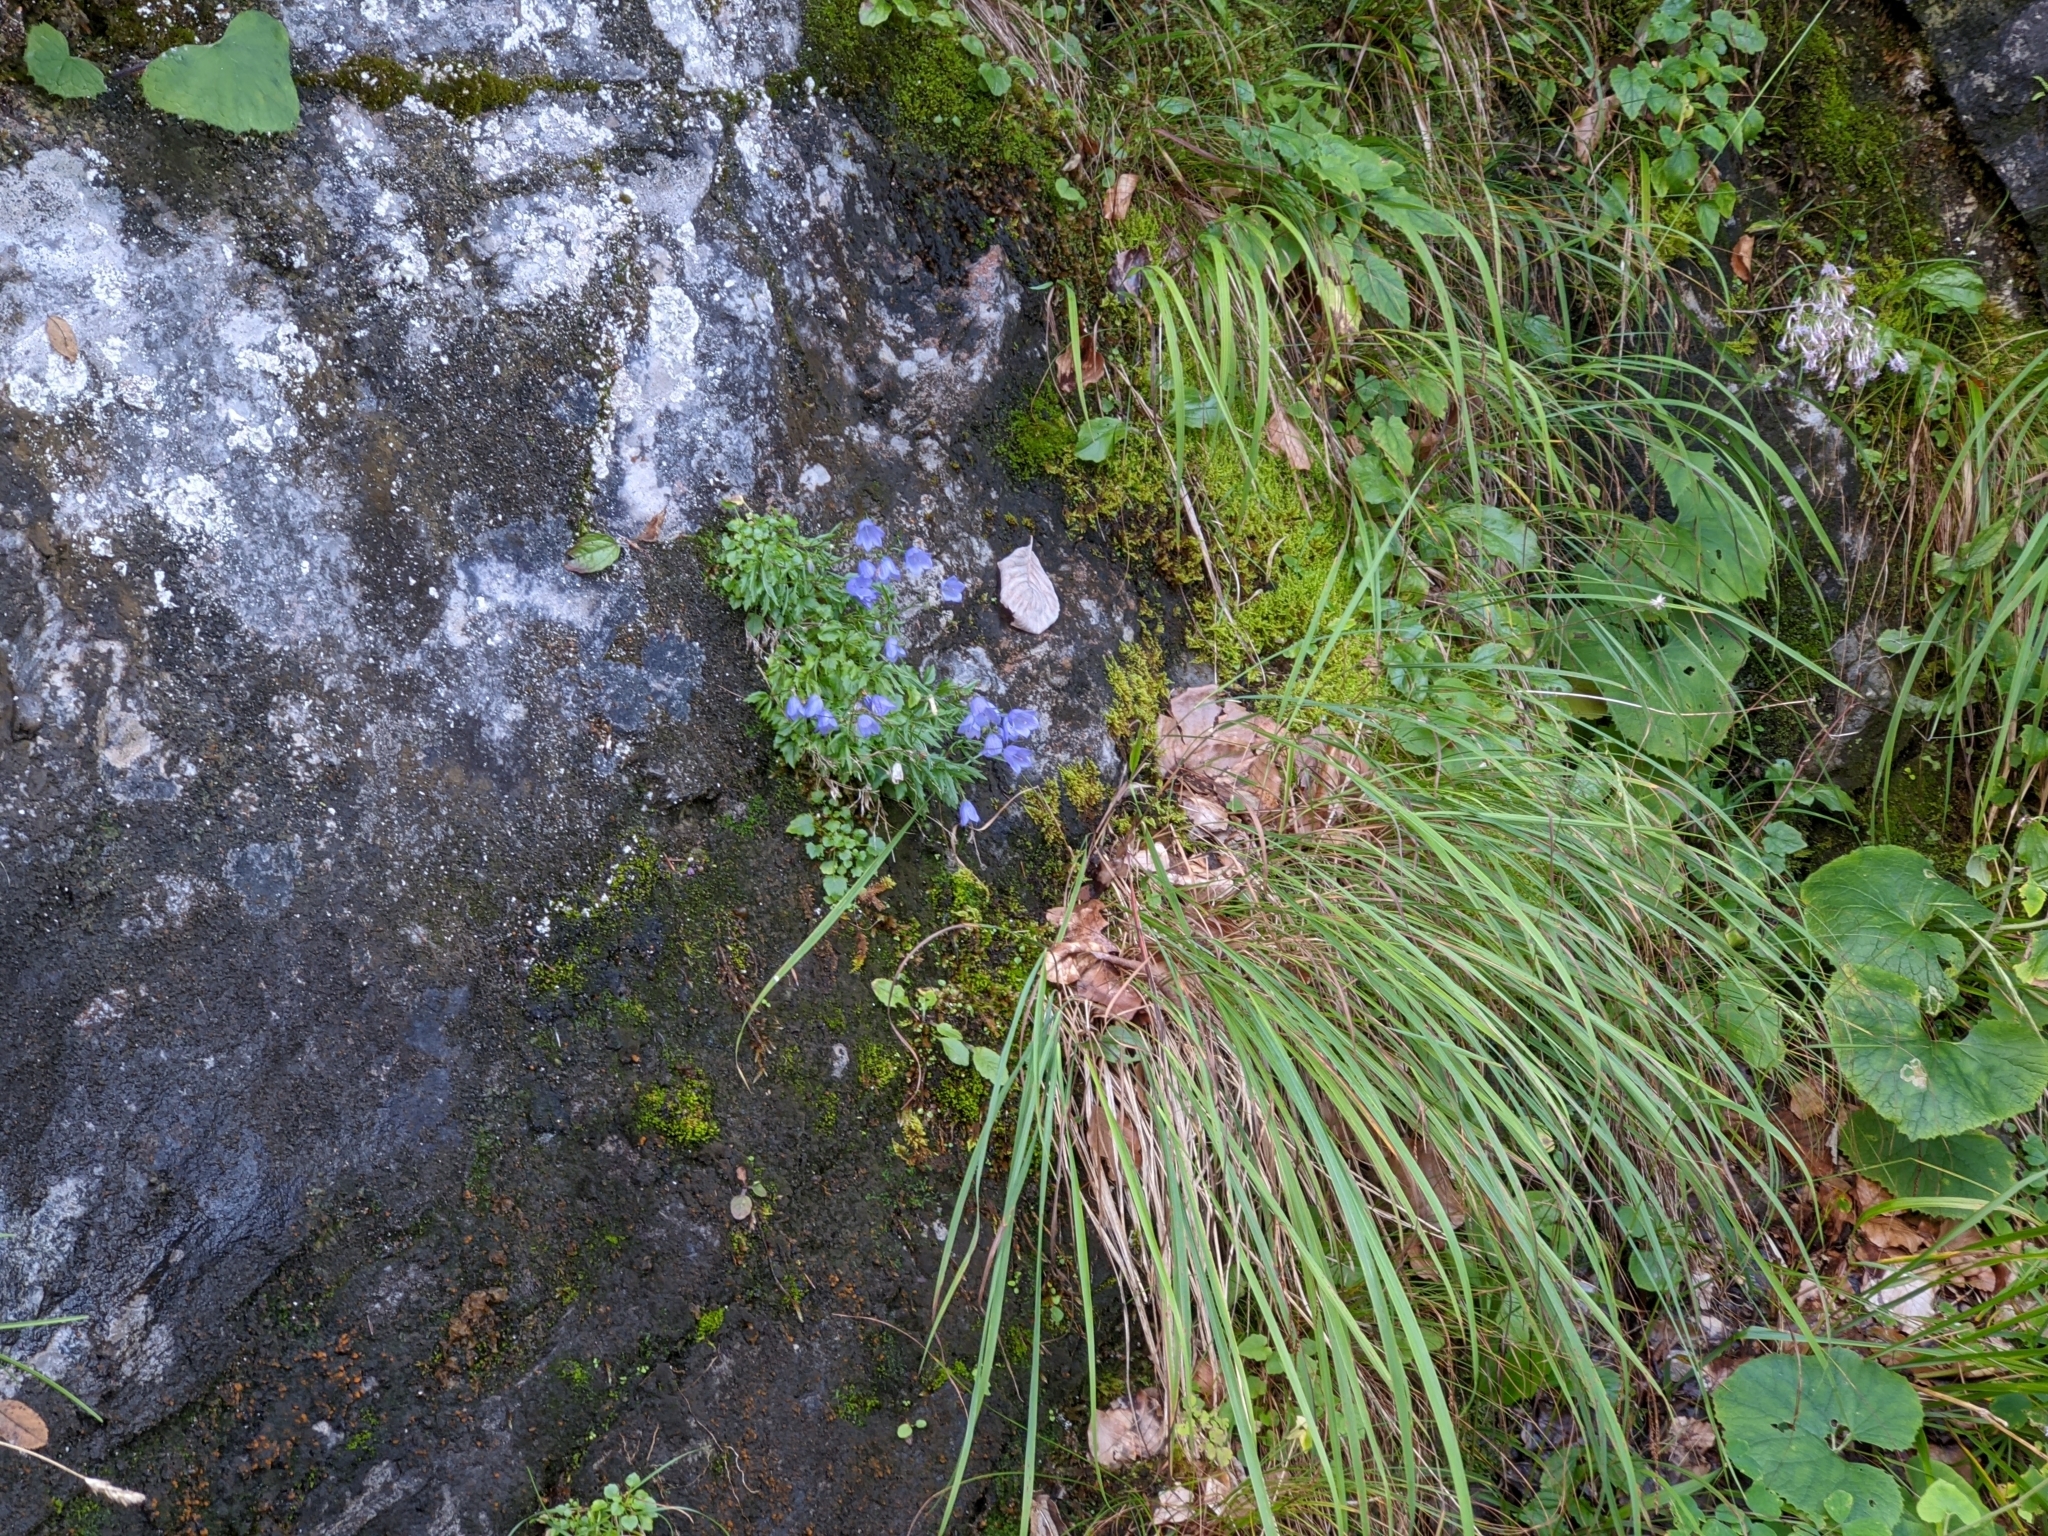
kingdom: Plantae
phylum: Tracheophyta
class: Magnoliopsida
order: Asterales
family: Campanulaceae
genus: Campanula
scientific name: Campanula cochleariifolia
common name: Fairies'-thimbles
